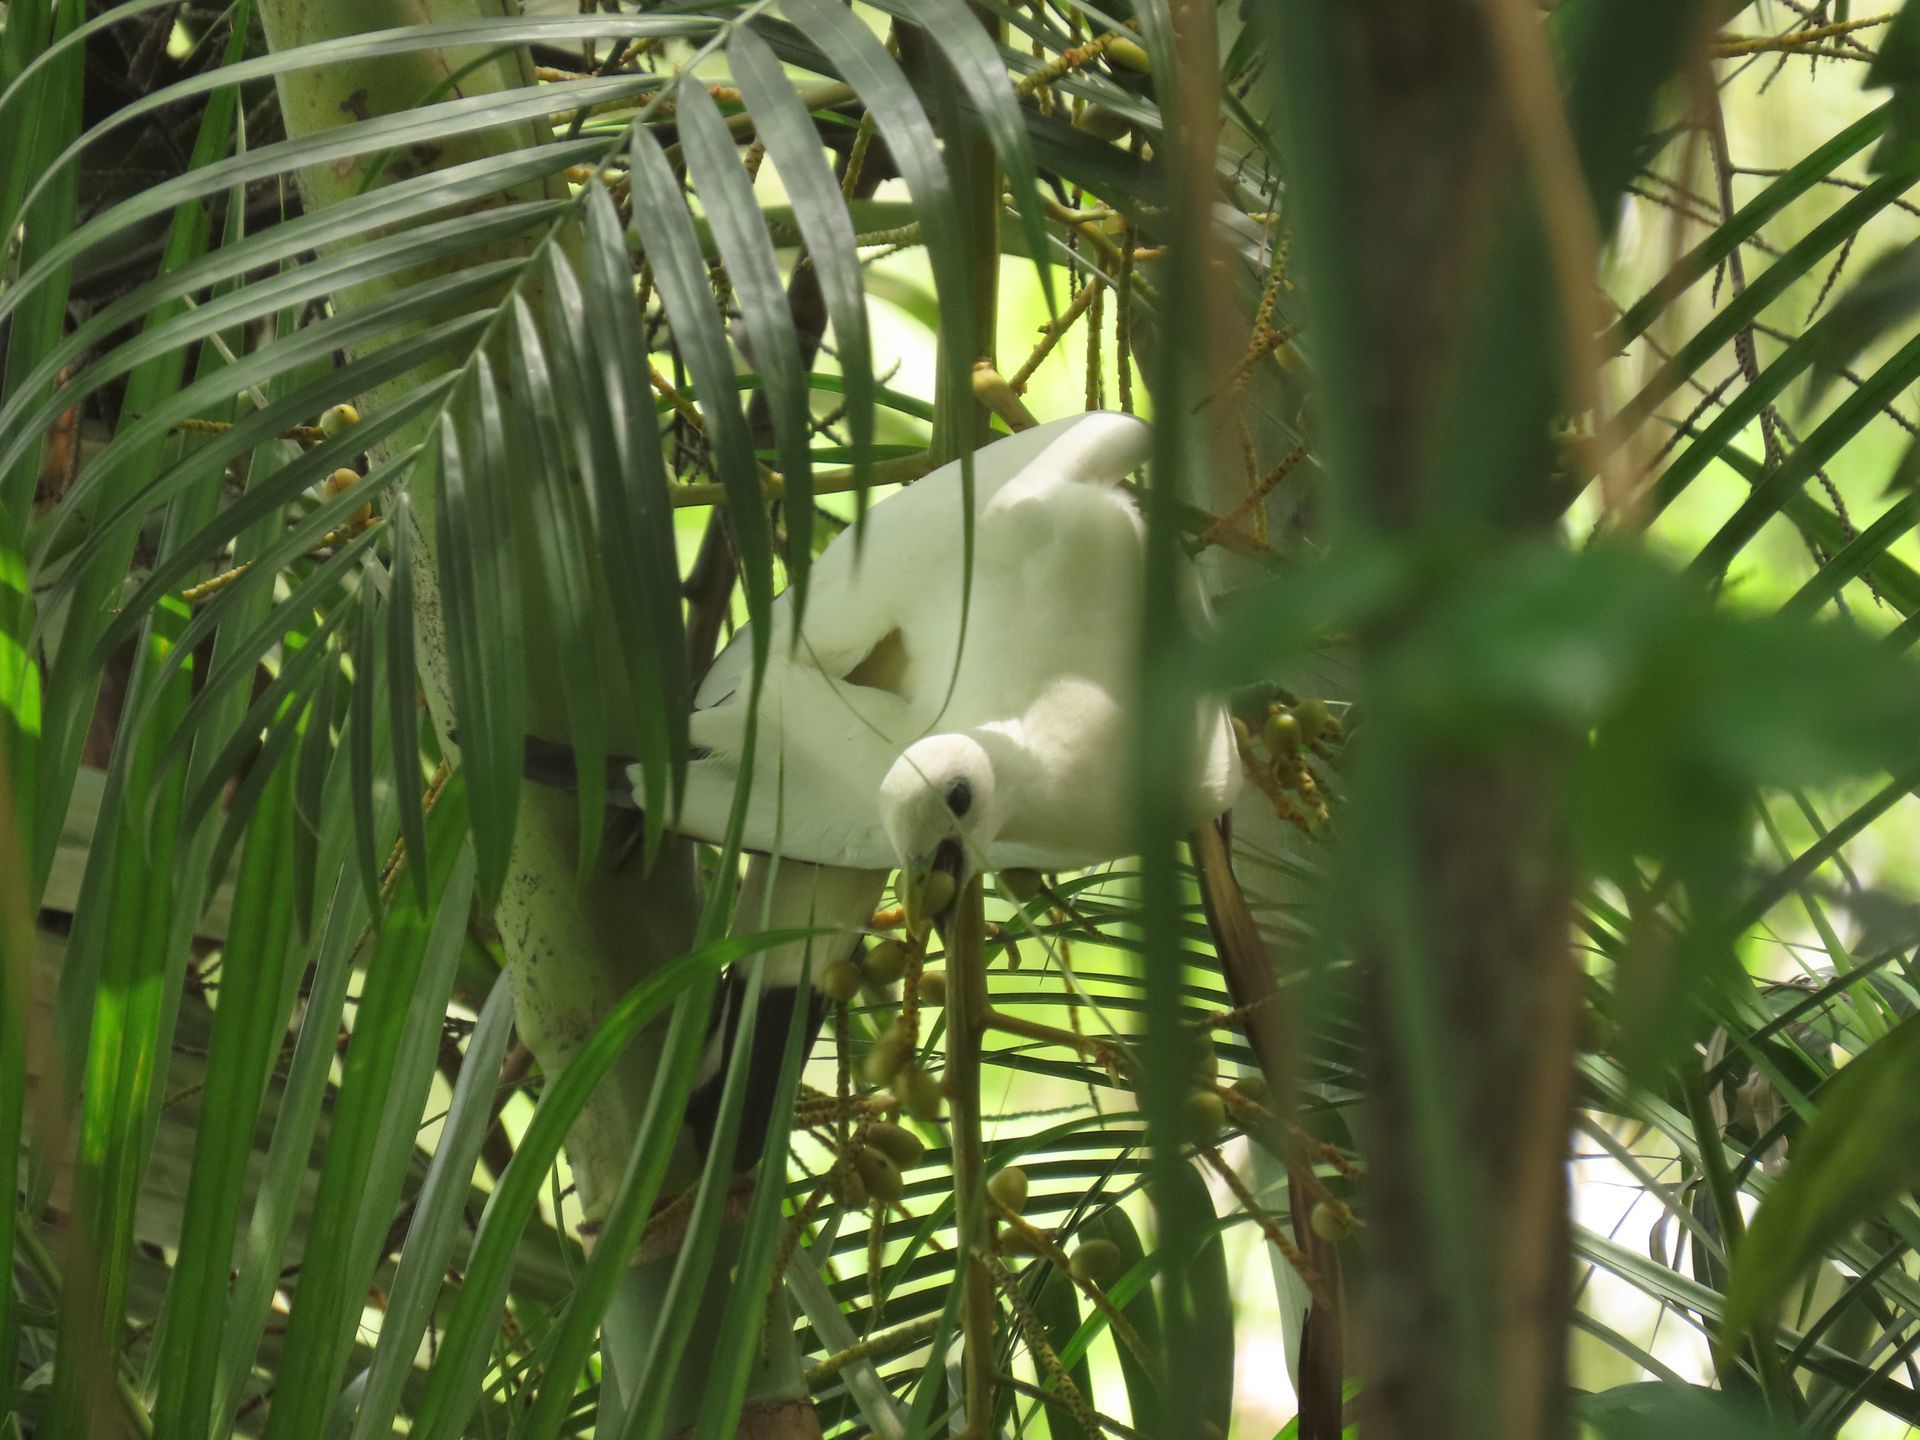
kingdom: Animalia
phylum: Chordata
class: Aves
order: Columbiformes
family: Columbidae
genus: Ducula
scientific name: Ducula spilorrhoa
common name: Torresian imperial pigeon
